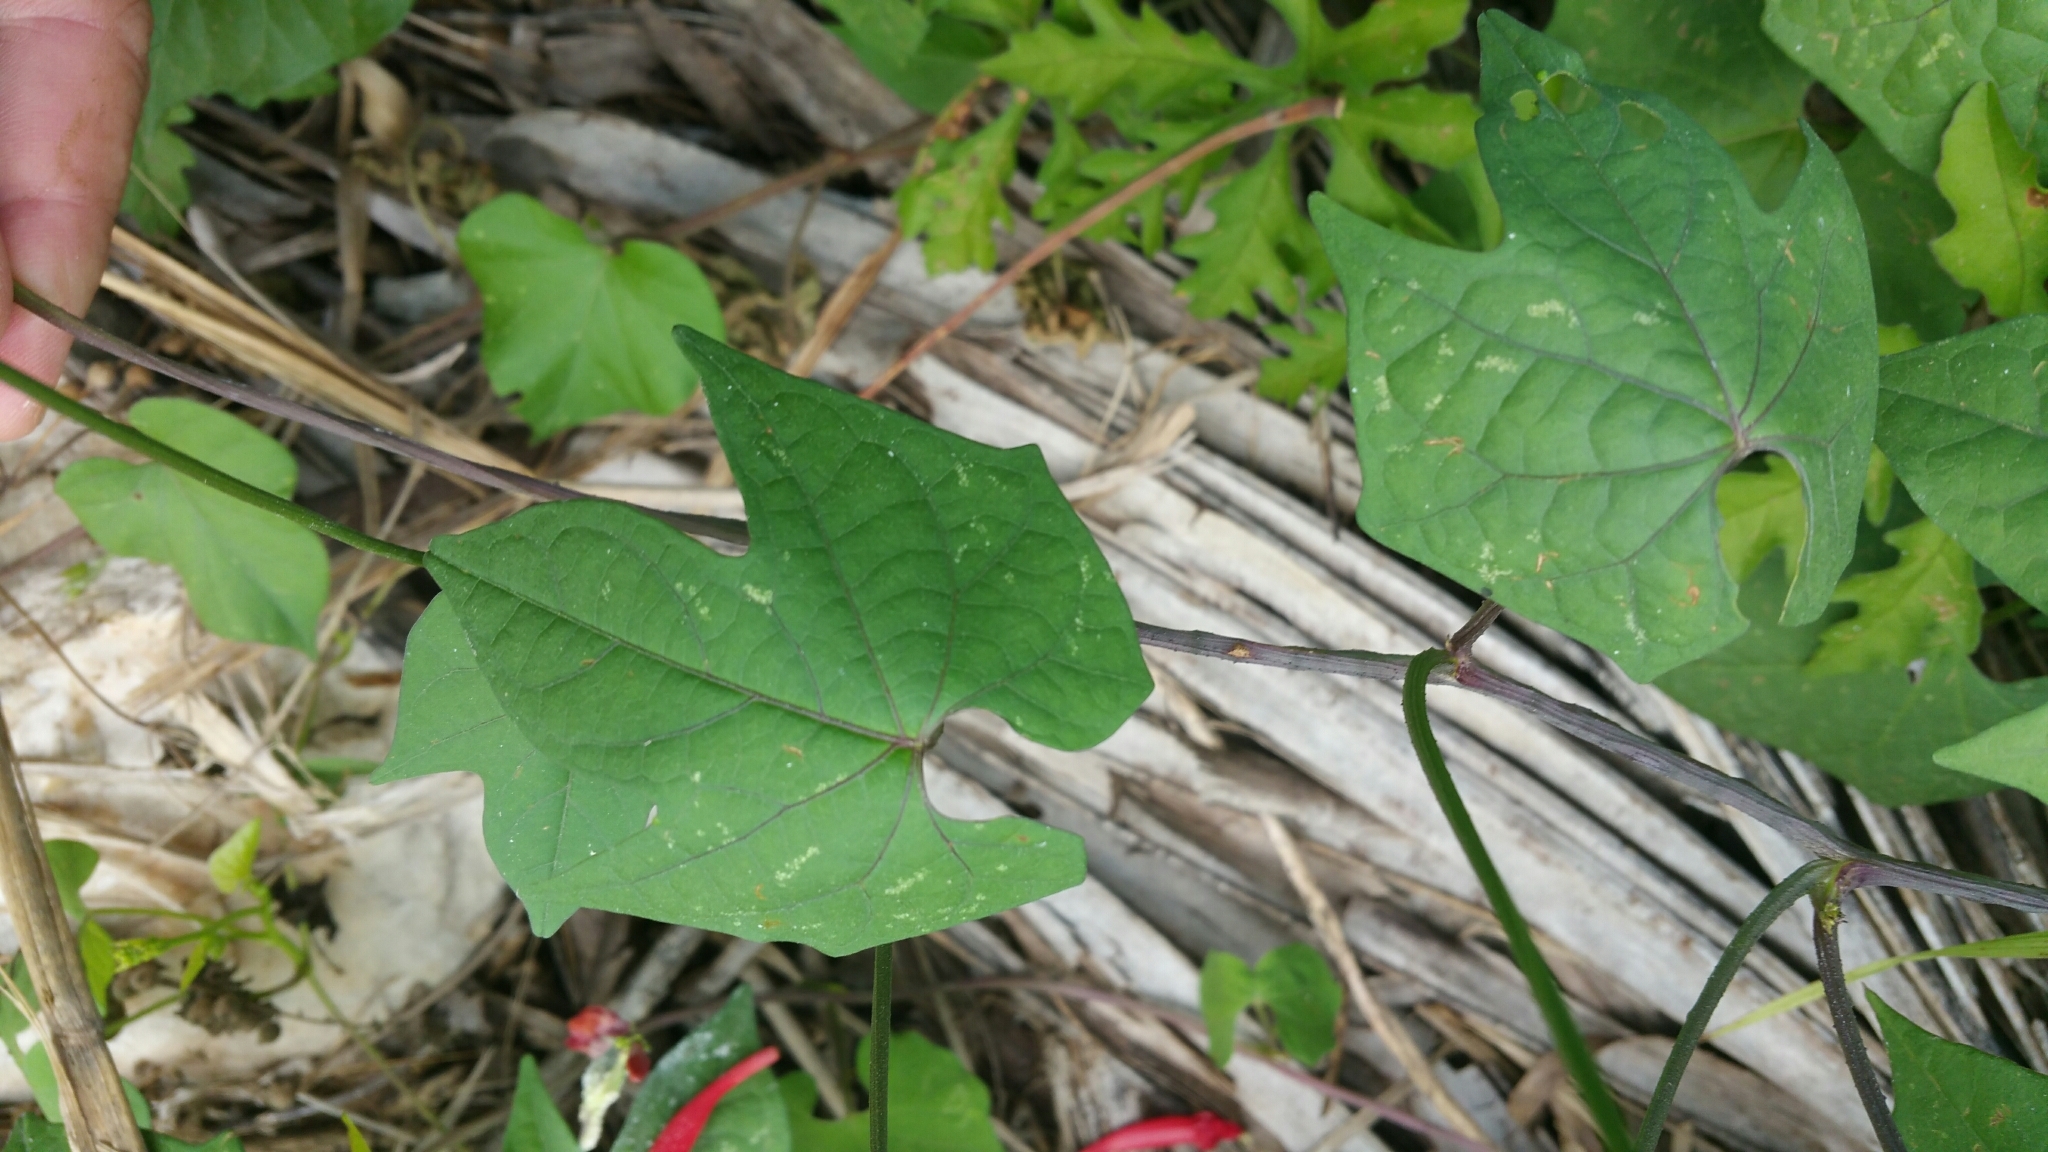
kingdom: Plantae
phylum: Tracheophyta
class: Magnoliopsida
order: Solanales
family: Convolvulaceae
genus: Ipomoea
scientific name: Ipomoea hederifolia
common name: Ivy-leaf morning-glory
